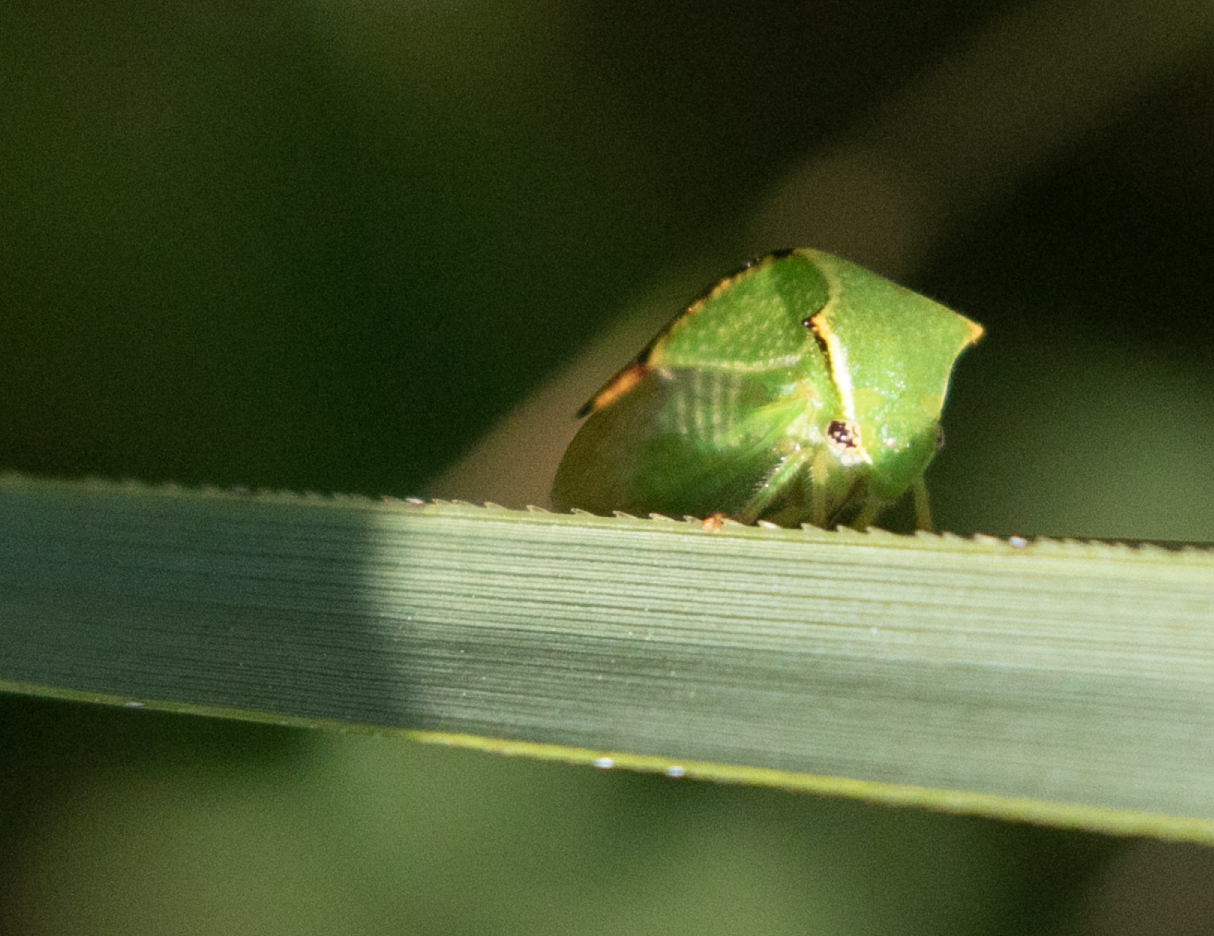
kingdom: Animalia
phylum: Arthropoda
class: Insecta
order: Hemiptera
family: Membracidae
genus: Stictocephala
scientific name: Stictocephala bisonia
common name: American buffalo treehopper
